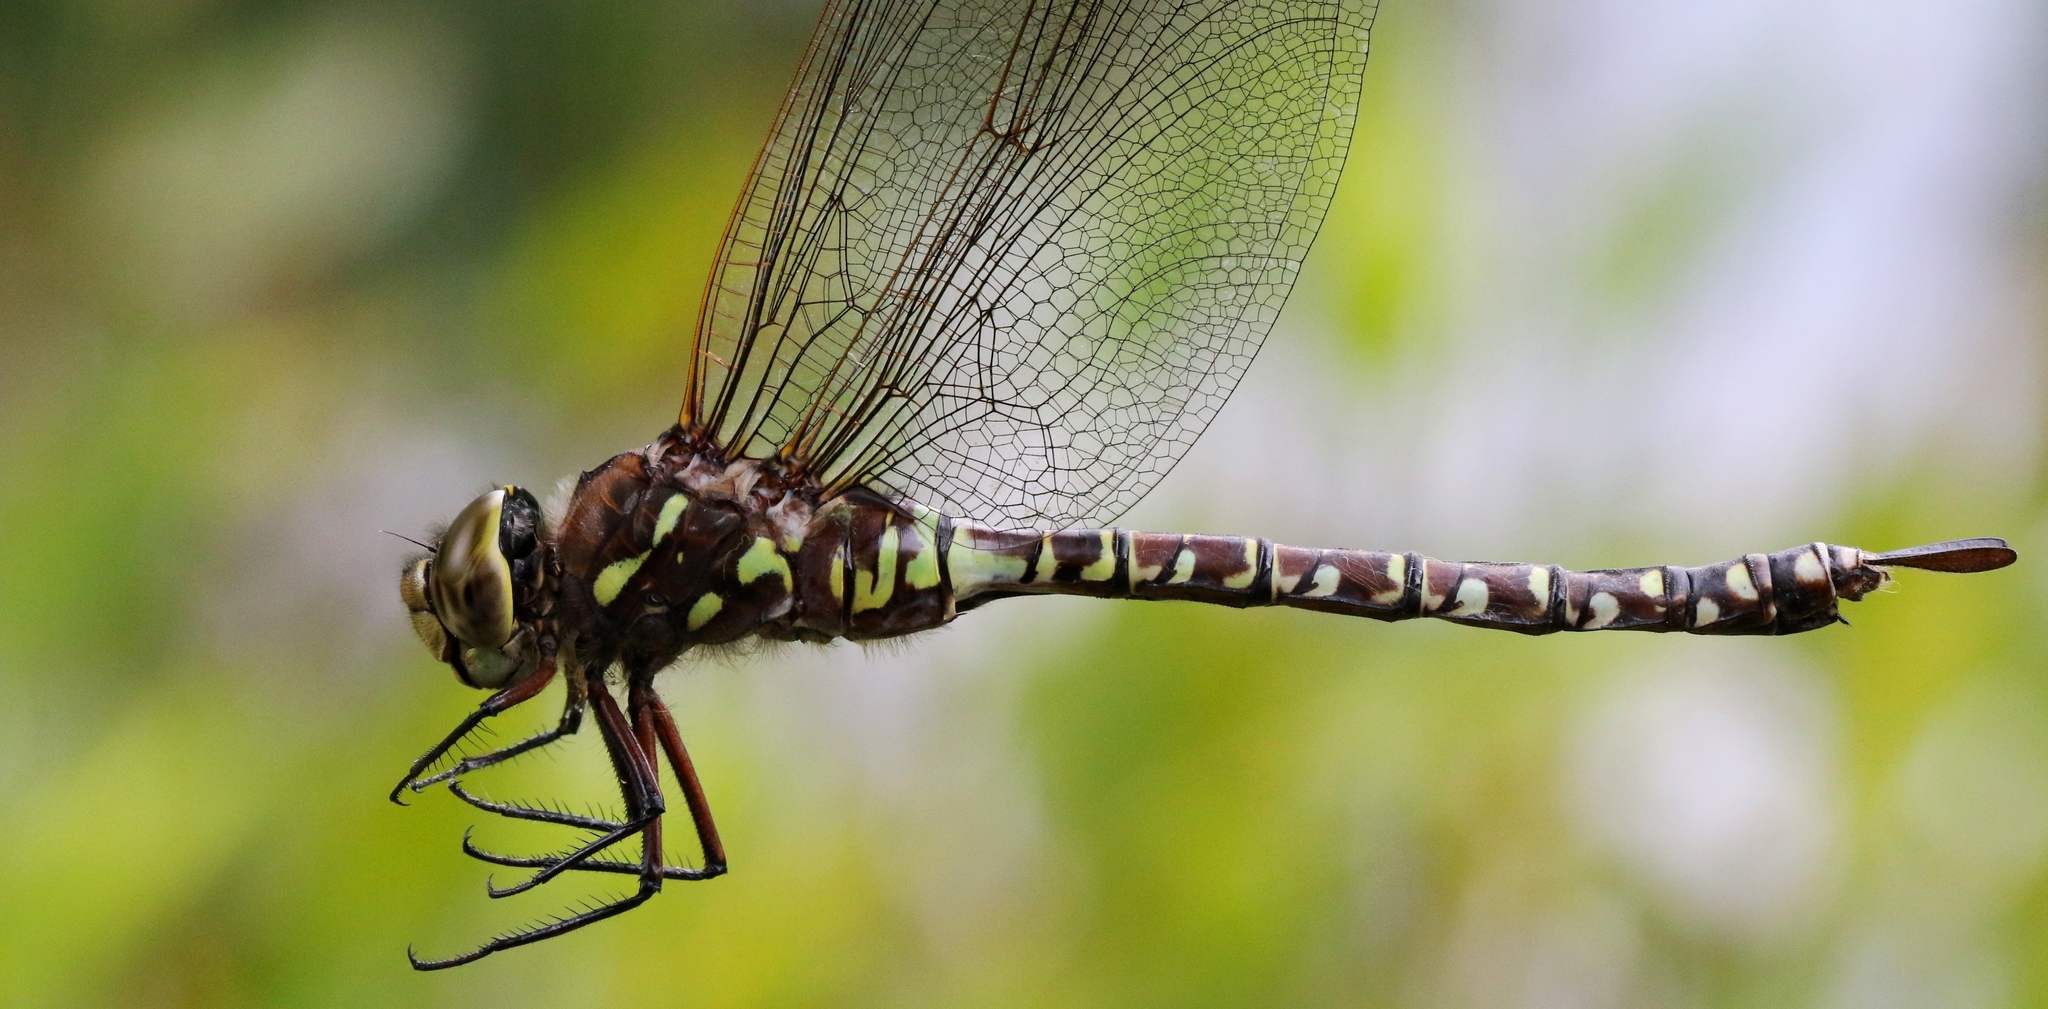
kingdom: Animalia
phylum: Arthropoda
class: Insecta
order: Odonata
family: Aeshnidae
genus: Aeshna
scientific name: Aeshna interrupta
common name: Variable darner
